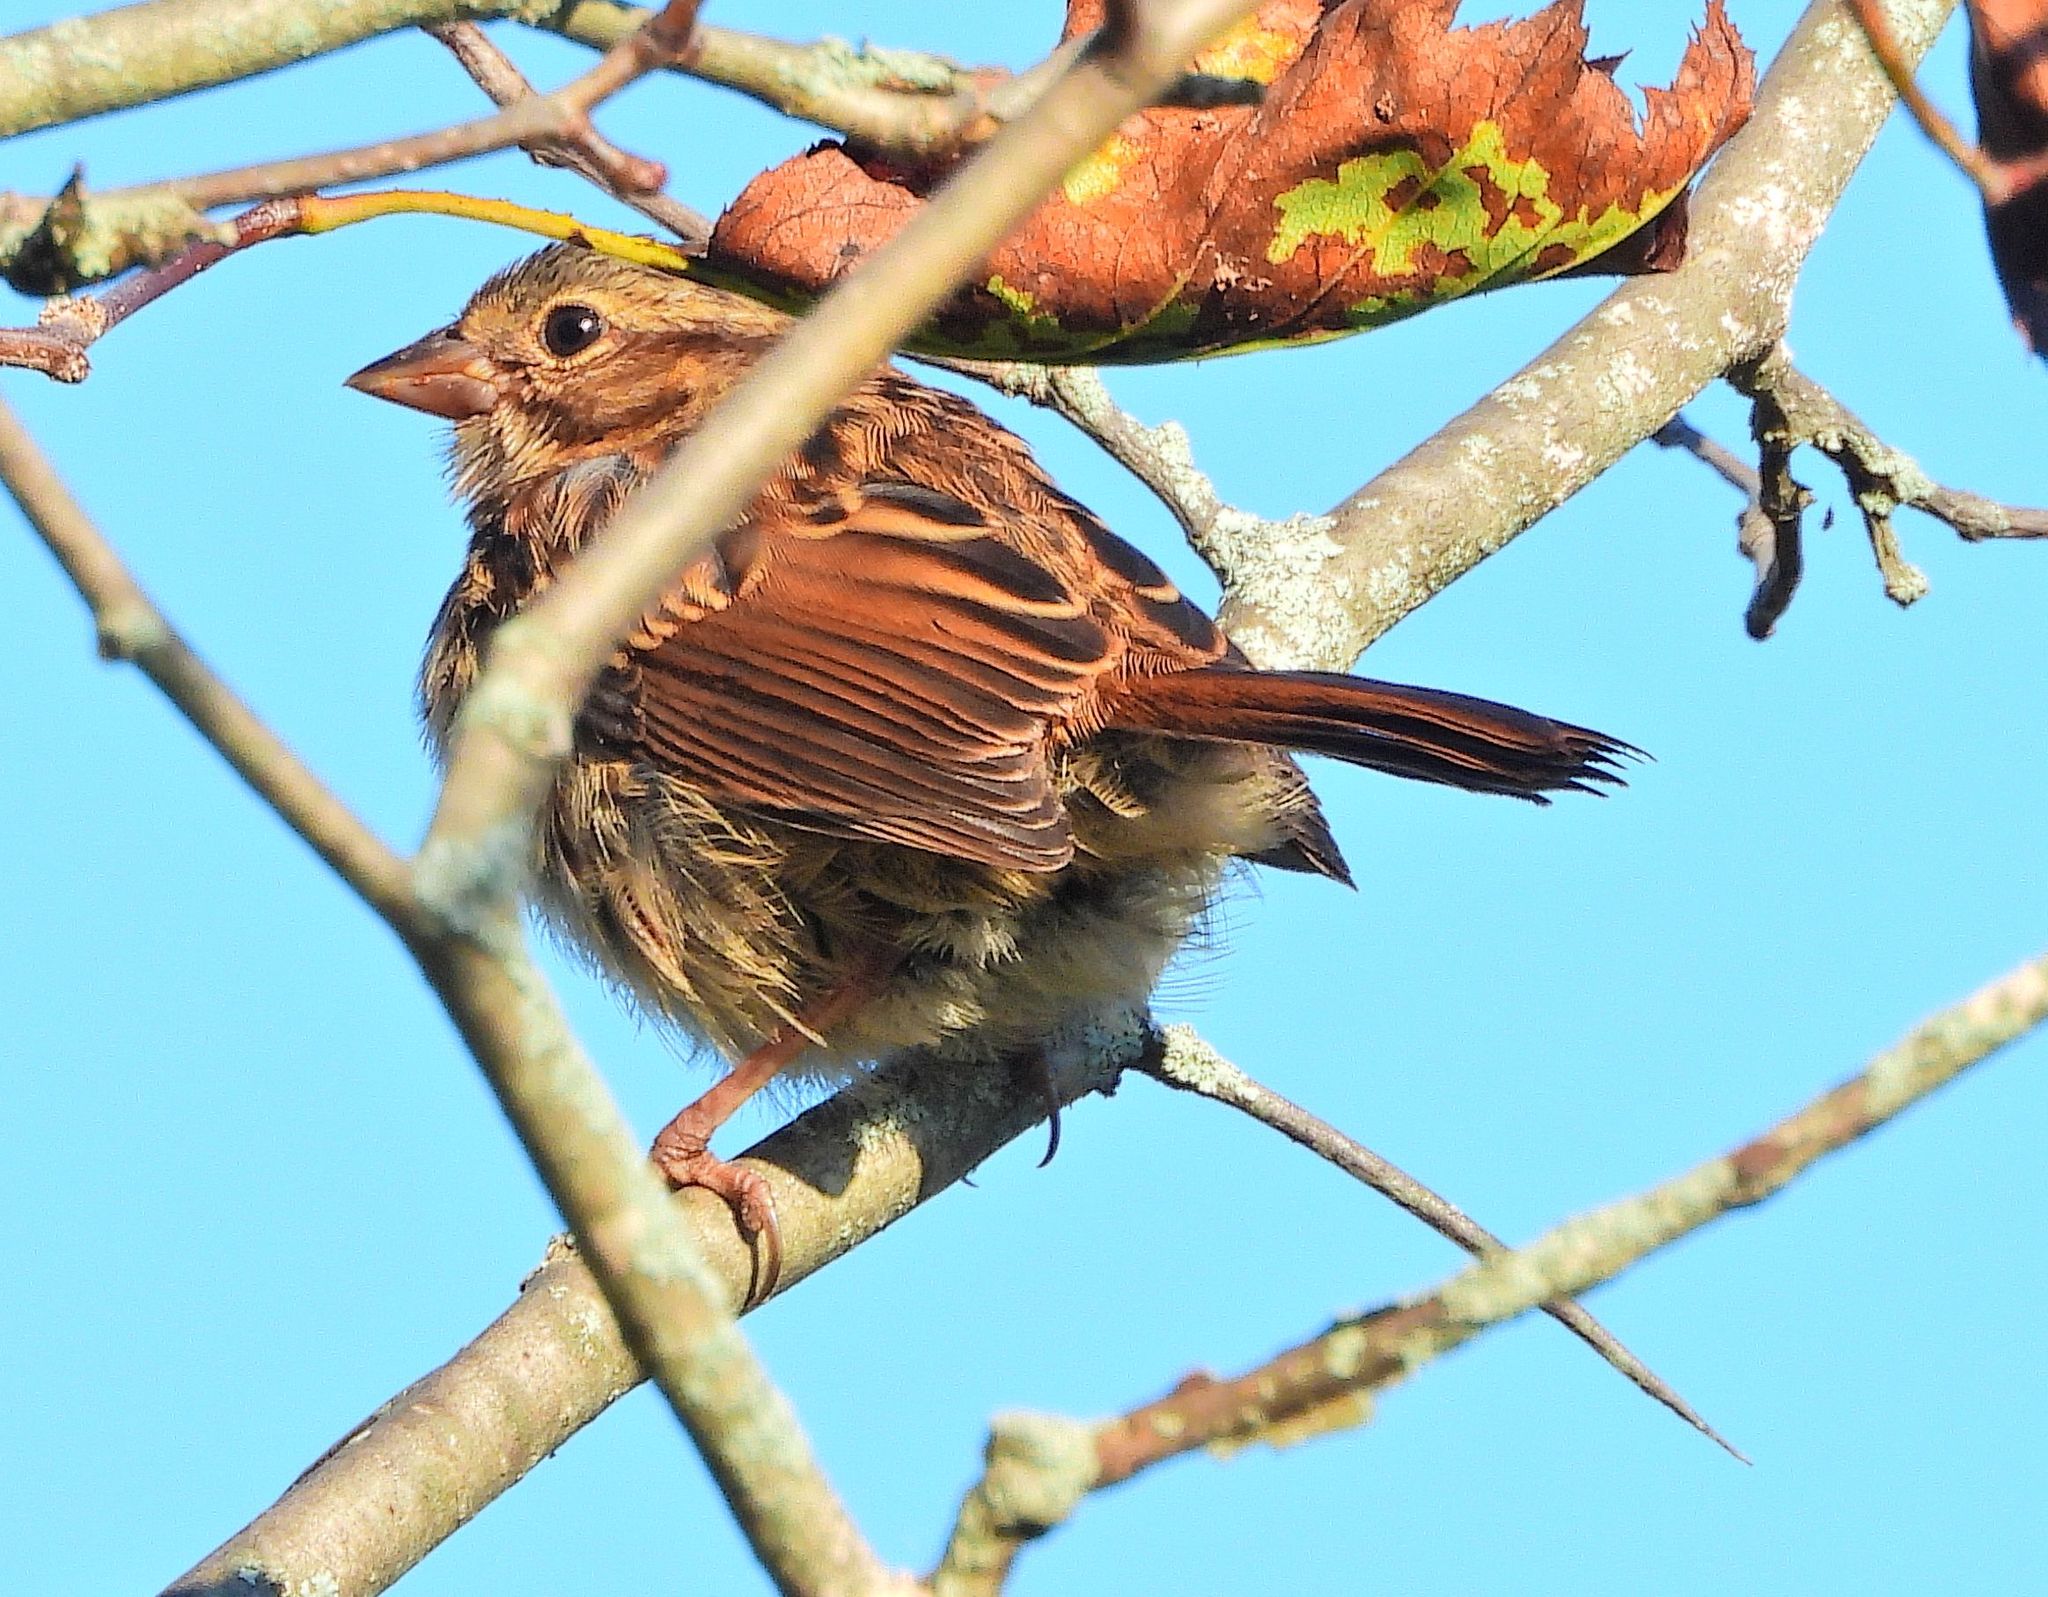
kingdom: Animalia
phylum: Chordata
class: Aves
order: Passeriformes
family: Passerellidae
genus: Melospiza
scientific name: Melospiza melodia
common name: Song sparrow
